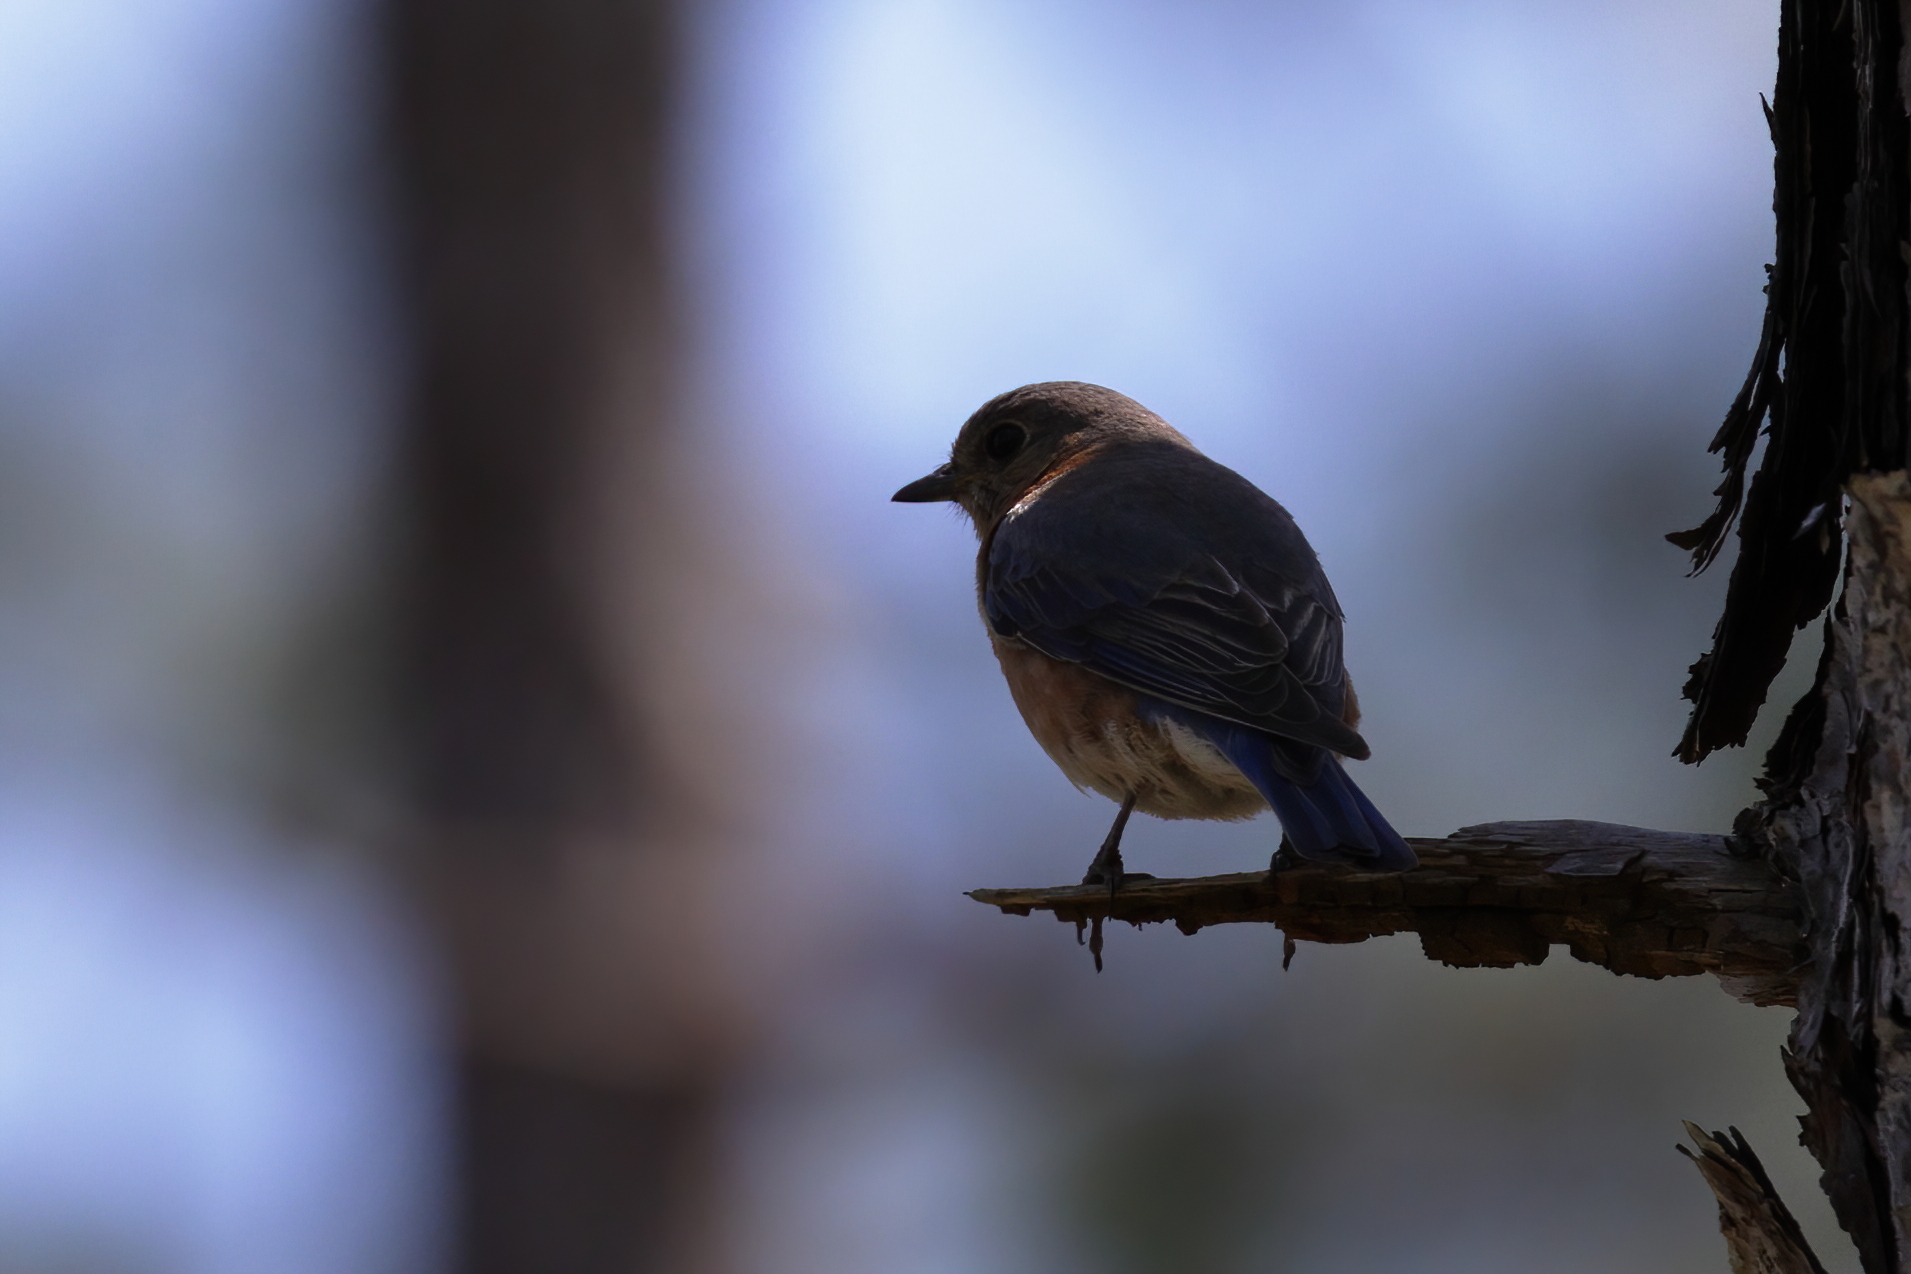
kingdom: Animalia
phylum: Chordata
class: Aves
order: Passeriformes
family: Turdidae
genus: Sialia
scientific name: Sialia sialis
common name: Eastern bluebird
